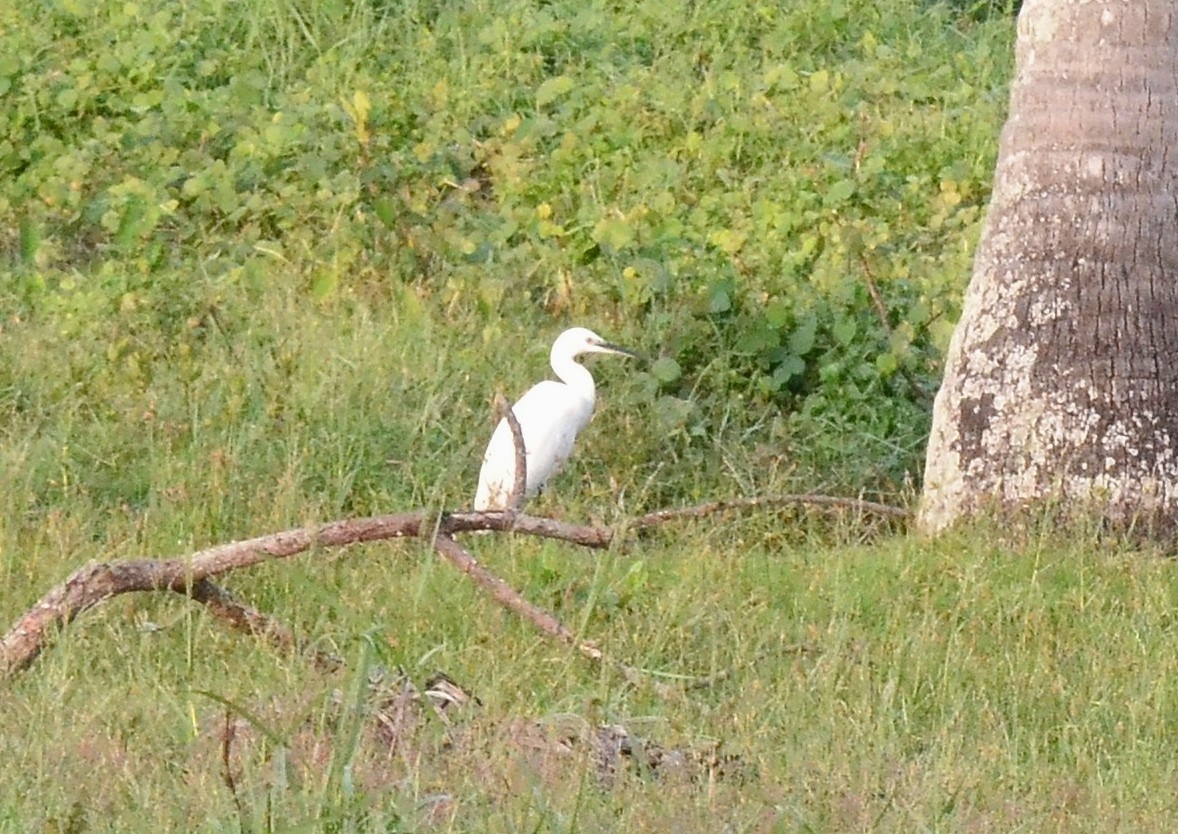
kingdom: Animalia
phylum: Chordata
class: Aves
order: Pelecaniformes
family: Ardeidae
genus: Egretta
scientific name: Egretta garzetta
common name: Little egret
